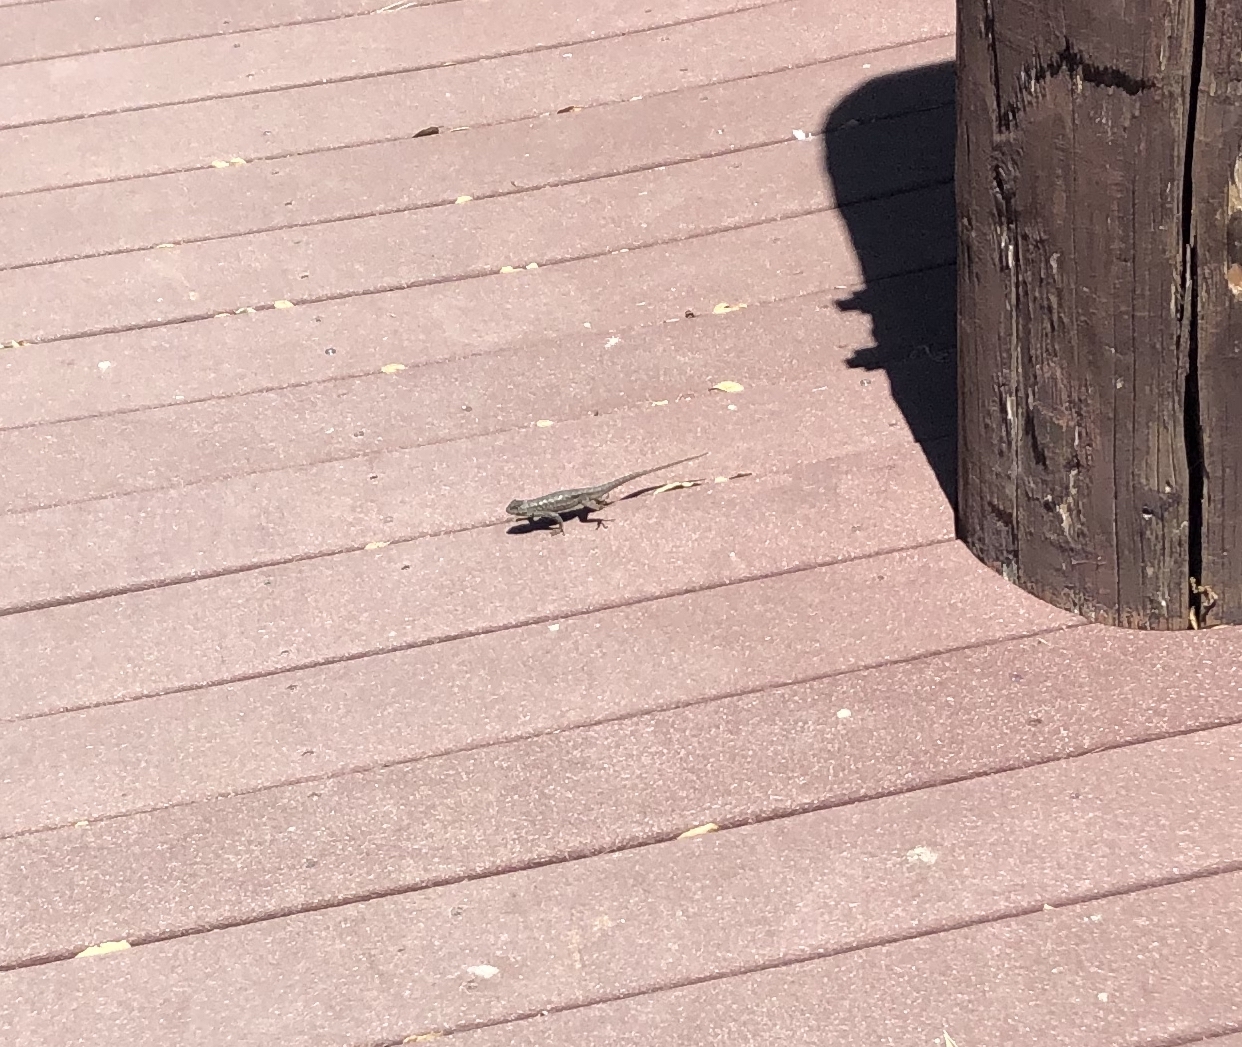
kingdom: Animalia
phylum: Chordata
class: Squamata
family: Phrynosomatidae
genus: Sceloporus
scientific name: Sceloporus occidentalis
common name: Western fence lizard
